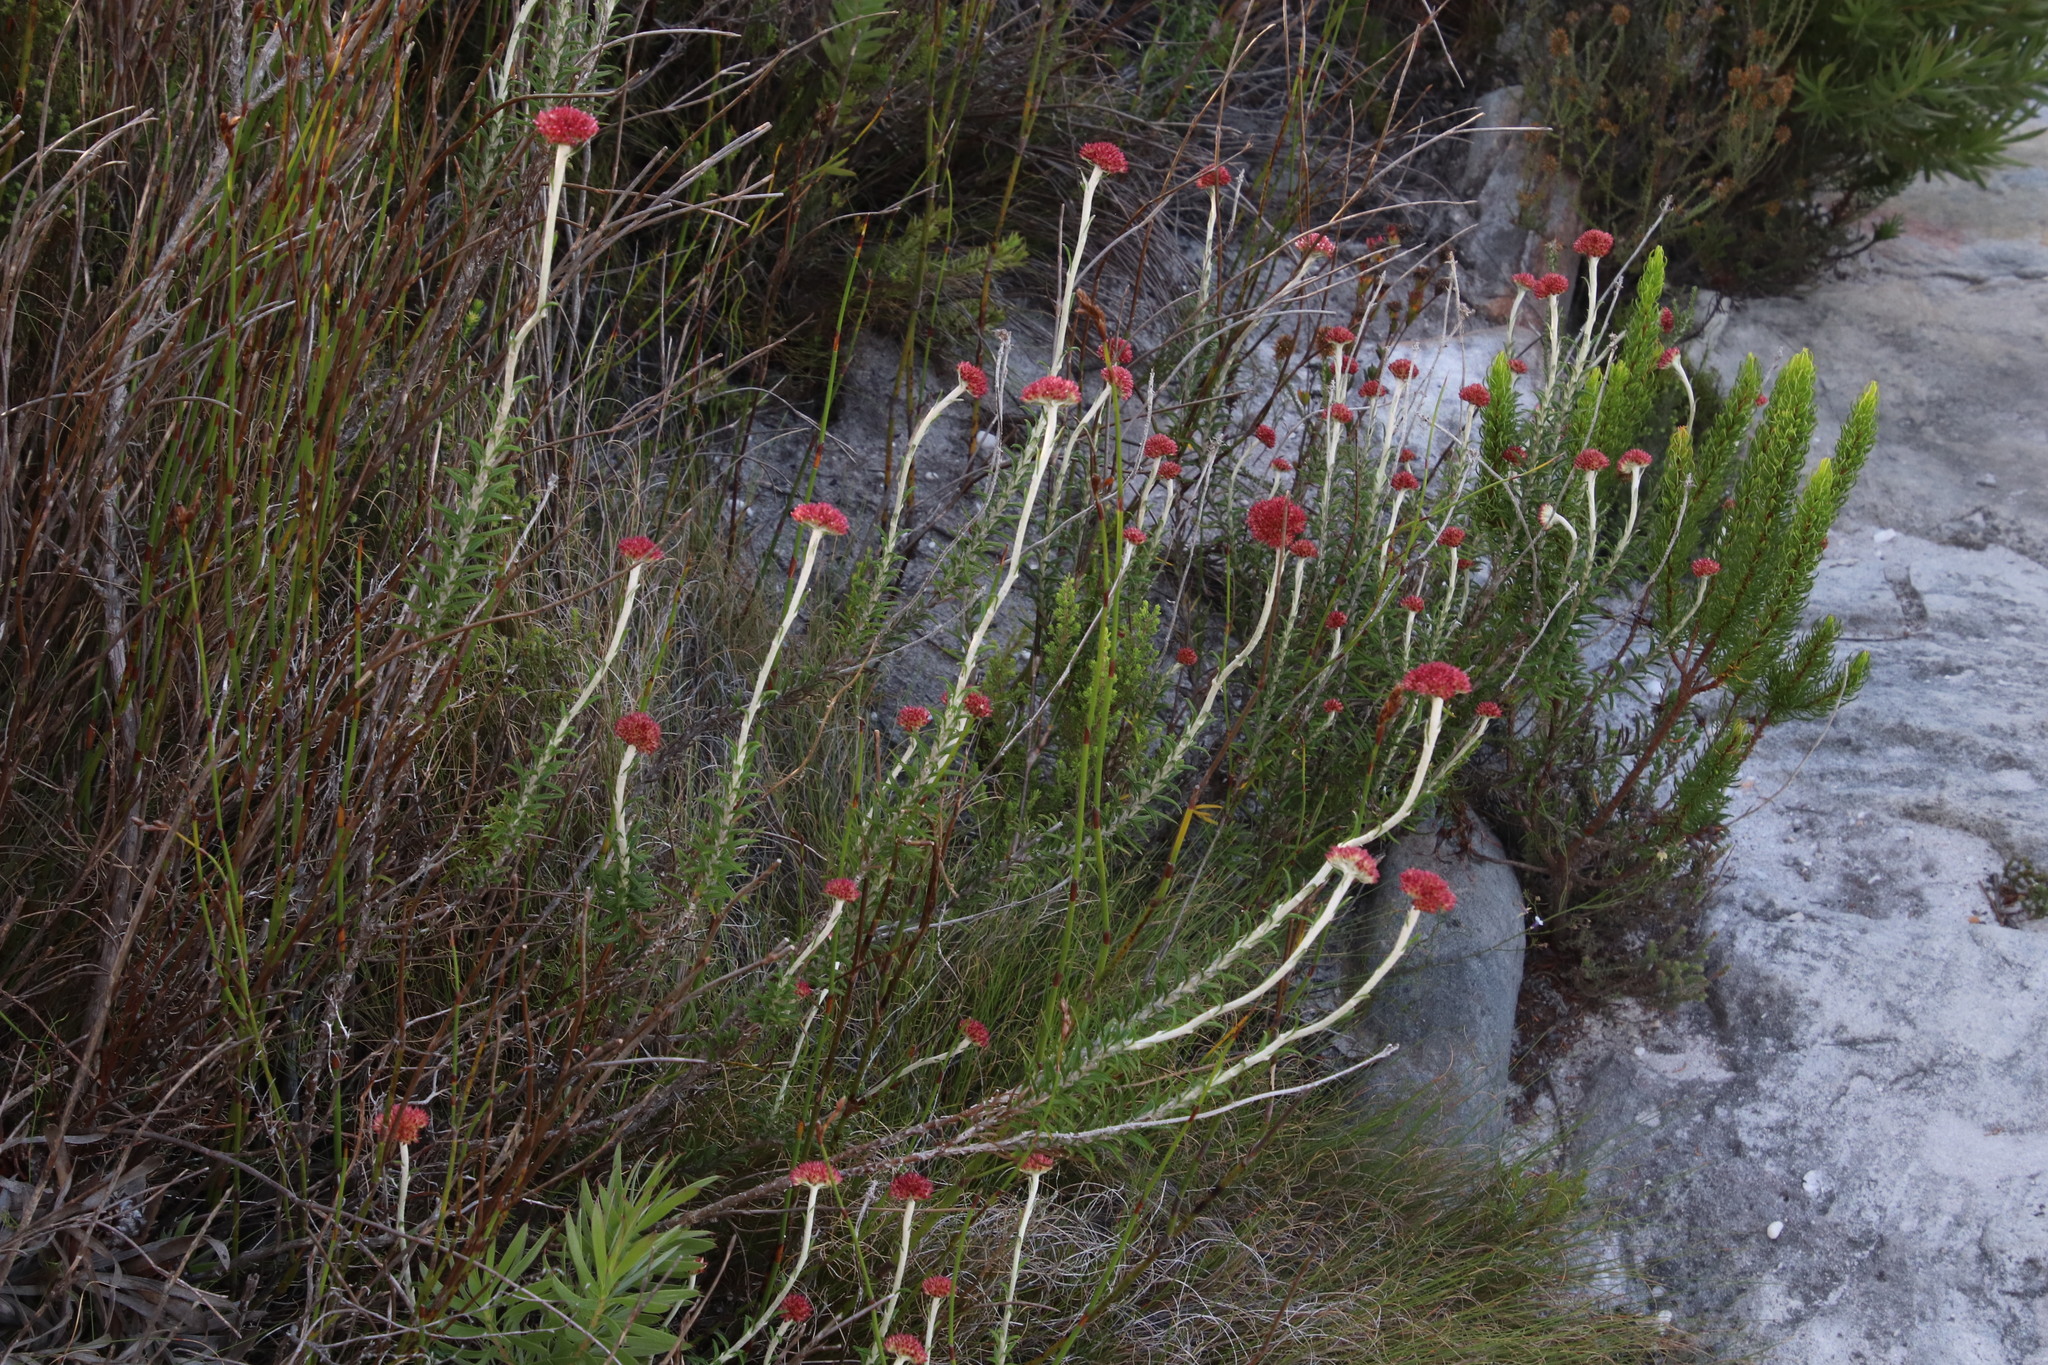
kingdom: Plantae
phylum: Tracheophyta
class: Magnoliopsida
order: Asterales
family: Asteraceae
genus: Anaxeton
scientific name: Anaxeton arborescens
